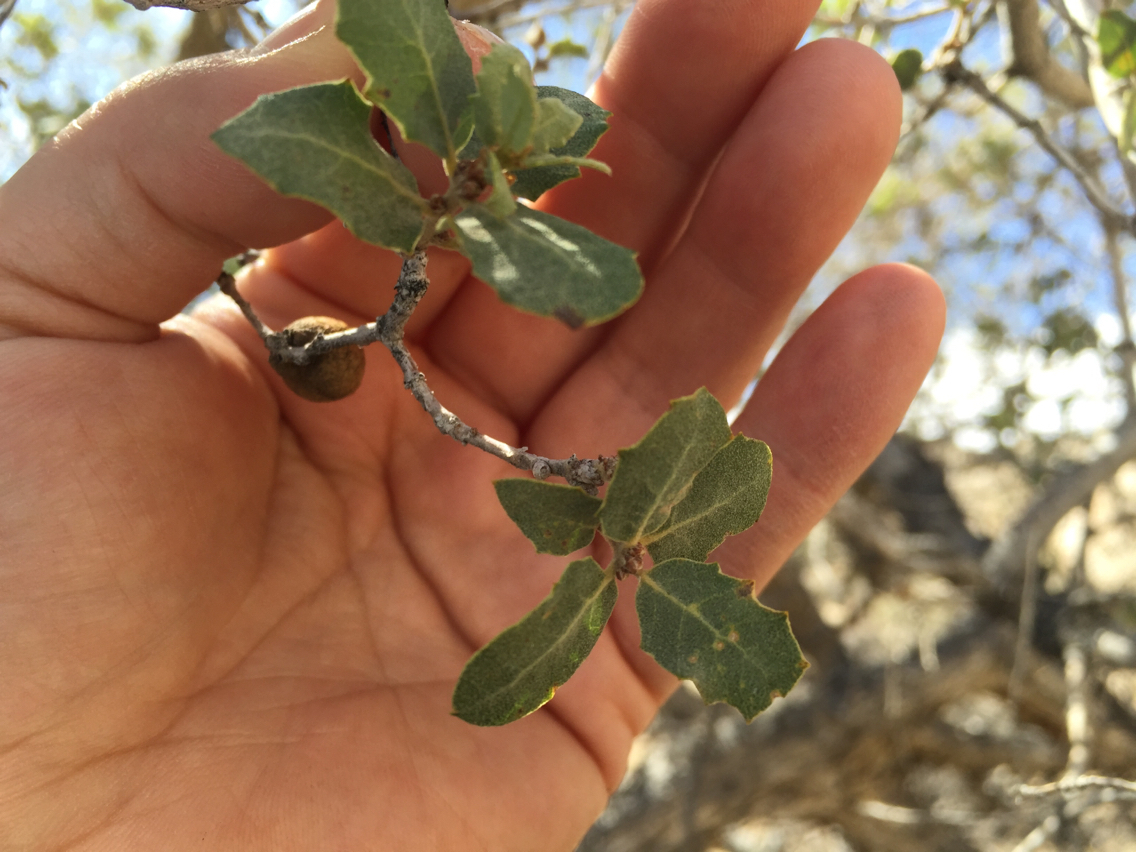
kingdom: Plantae
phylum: Tracheophyta
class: Magnoliopsida
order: Fagales
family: Fagaceae
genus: Quercus
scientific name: Quercus cornelius-mulleri
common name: Muller oak
